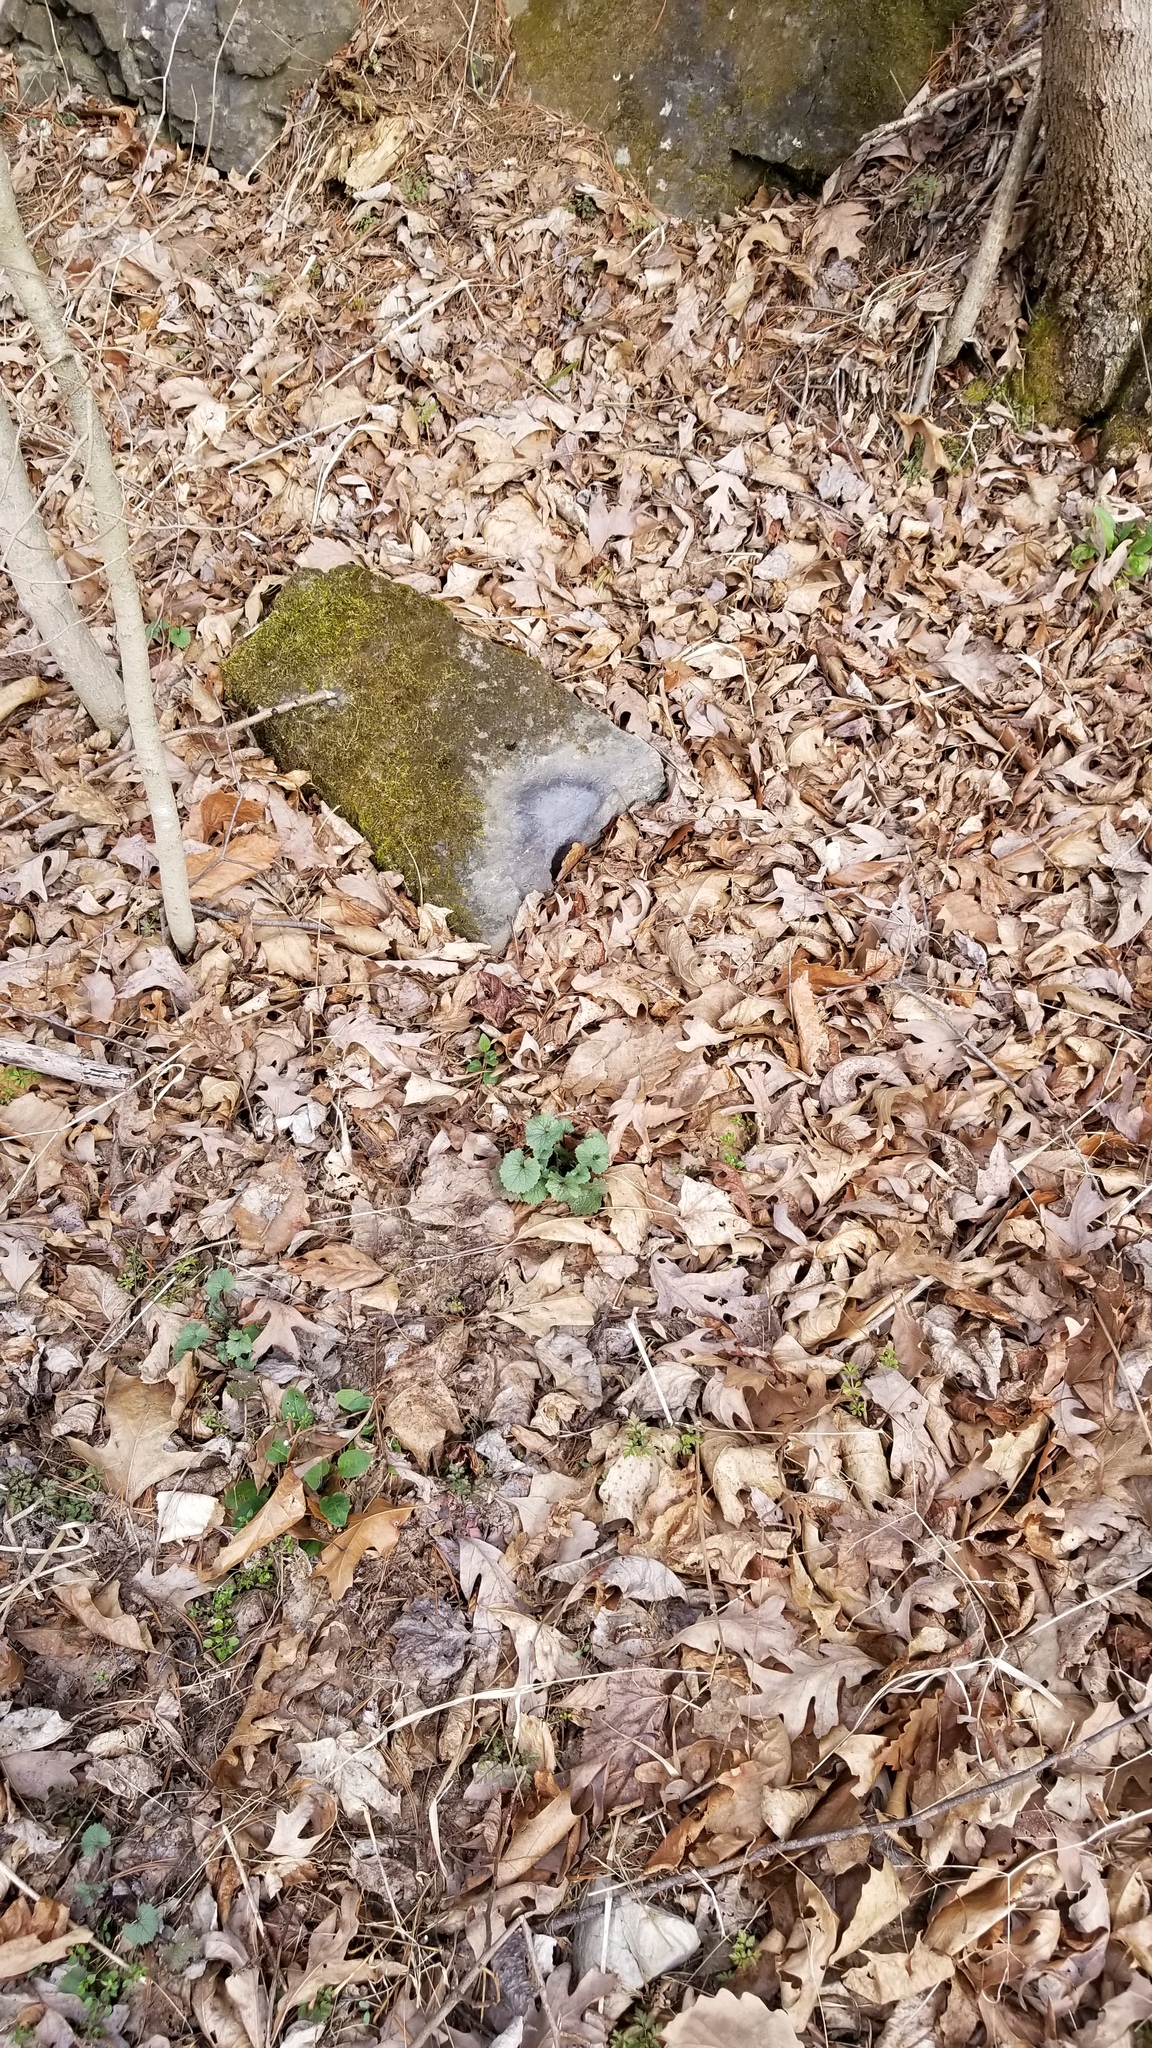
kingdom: Plantae
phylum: Tracheophyta
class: Magnoliopsida
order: Brassicales
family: Brassicaceae
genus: Alliaria
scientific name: Alliaria petiolata
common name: Garlic mustard
